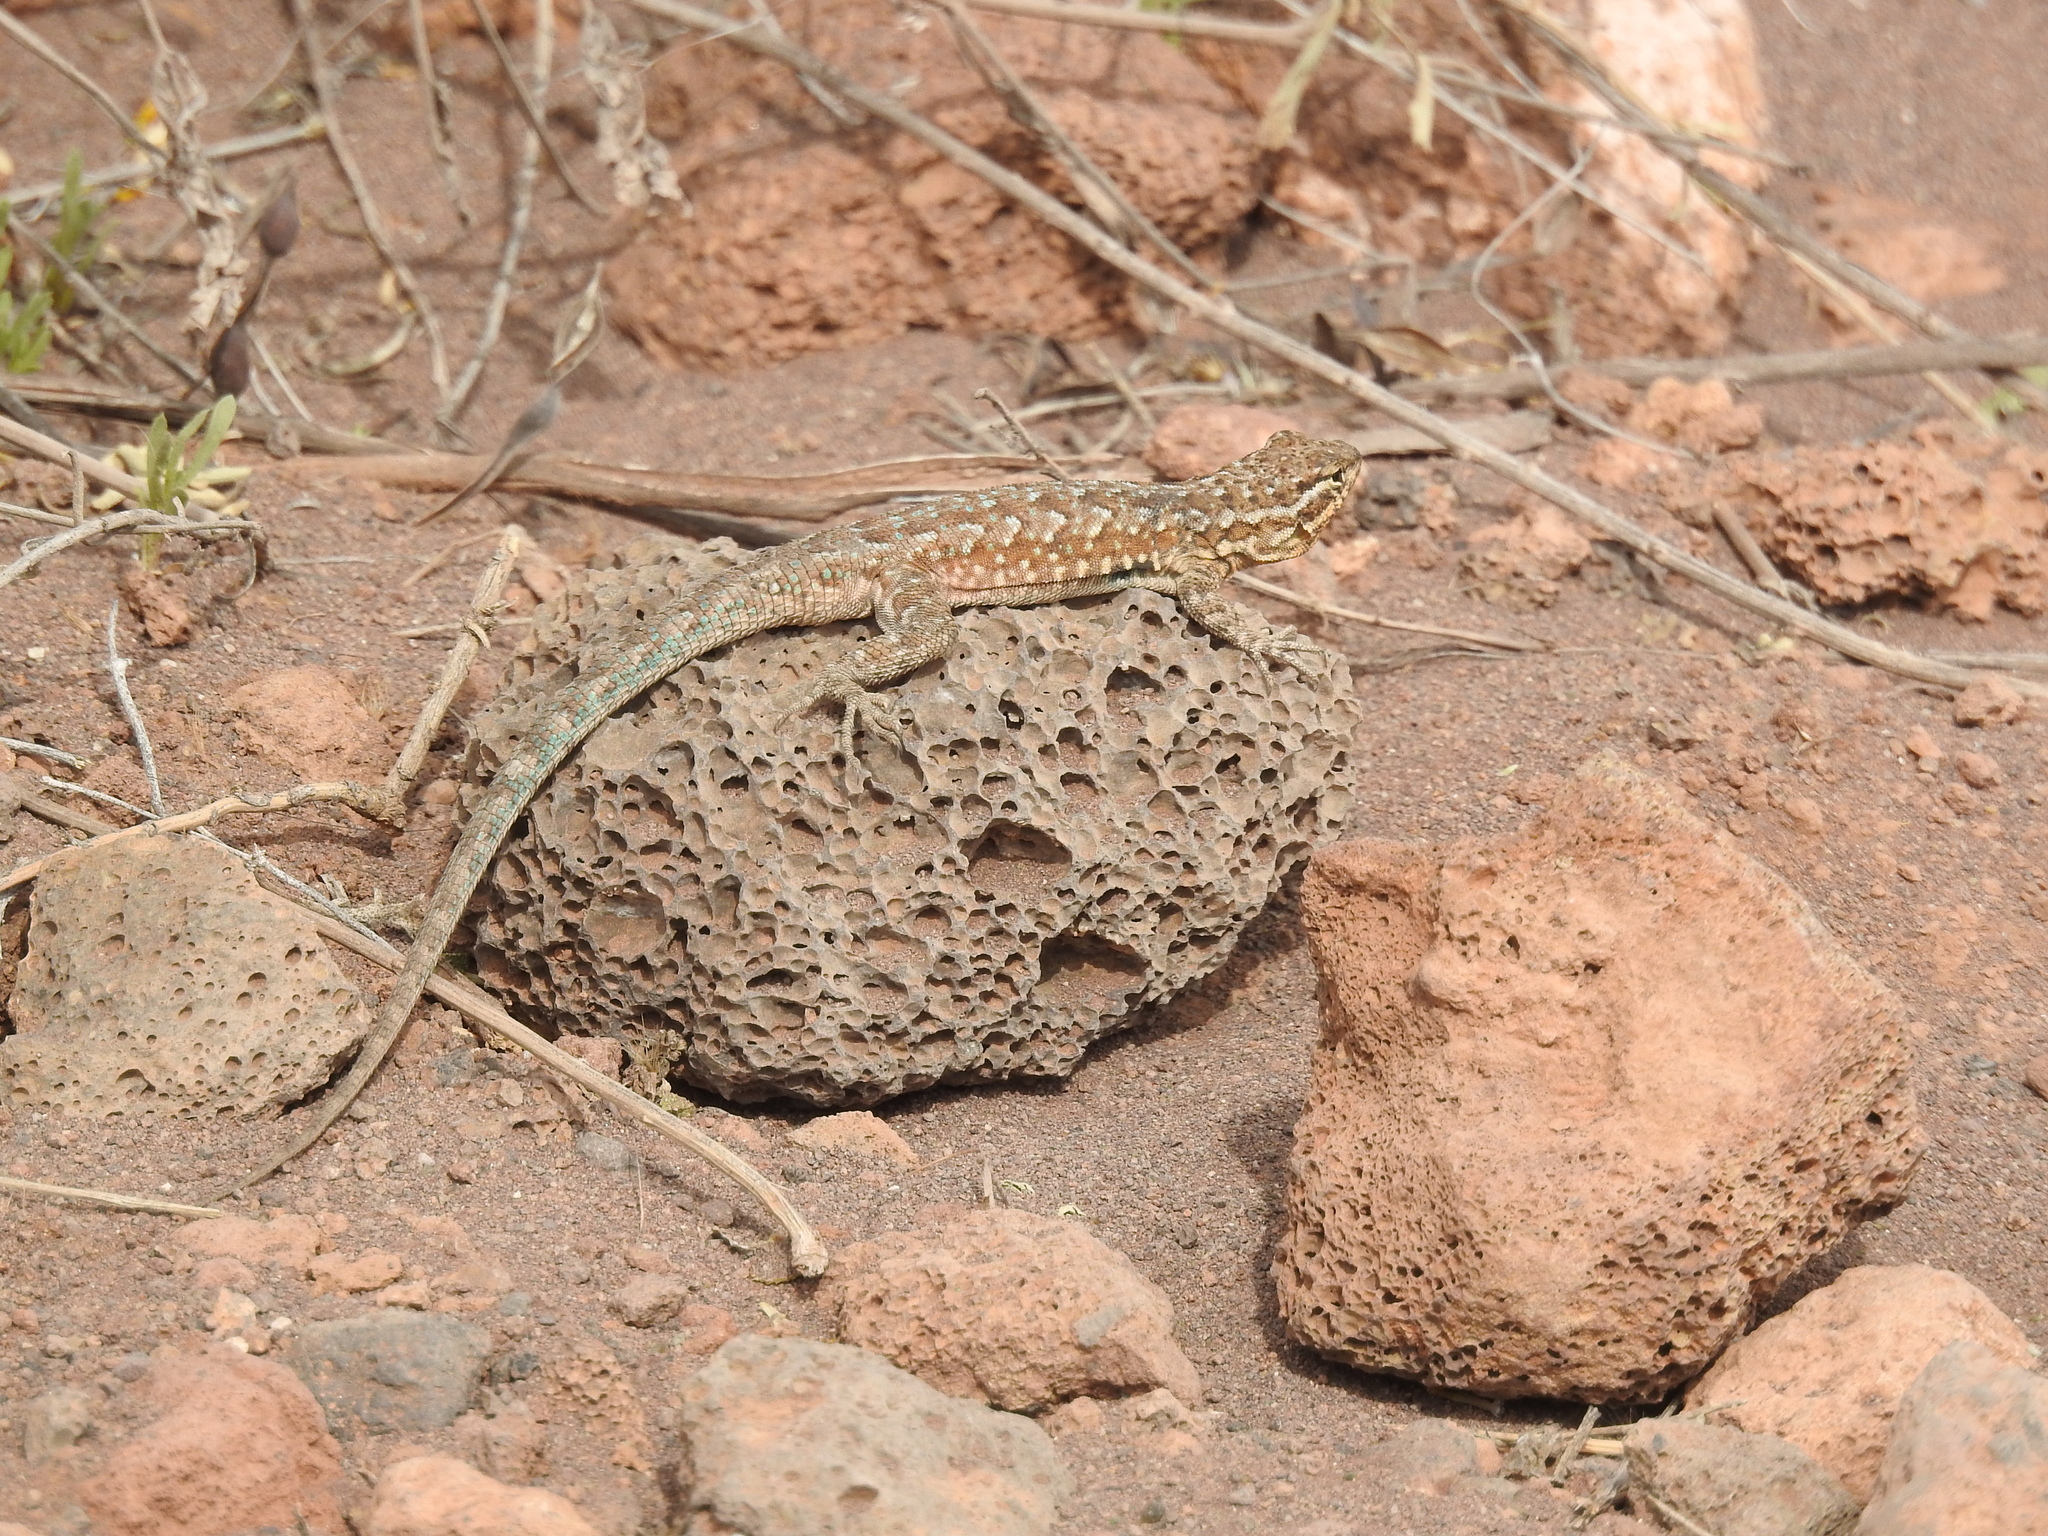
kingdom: Animalia
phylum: Chordata
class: Squamata
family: Phrynosomatidae
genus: Uta
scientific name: Uta stansburiana
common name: Side-blotched lizard
